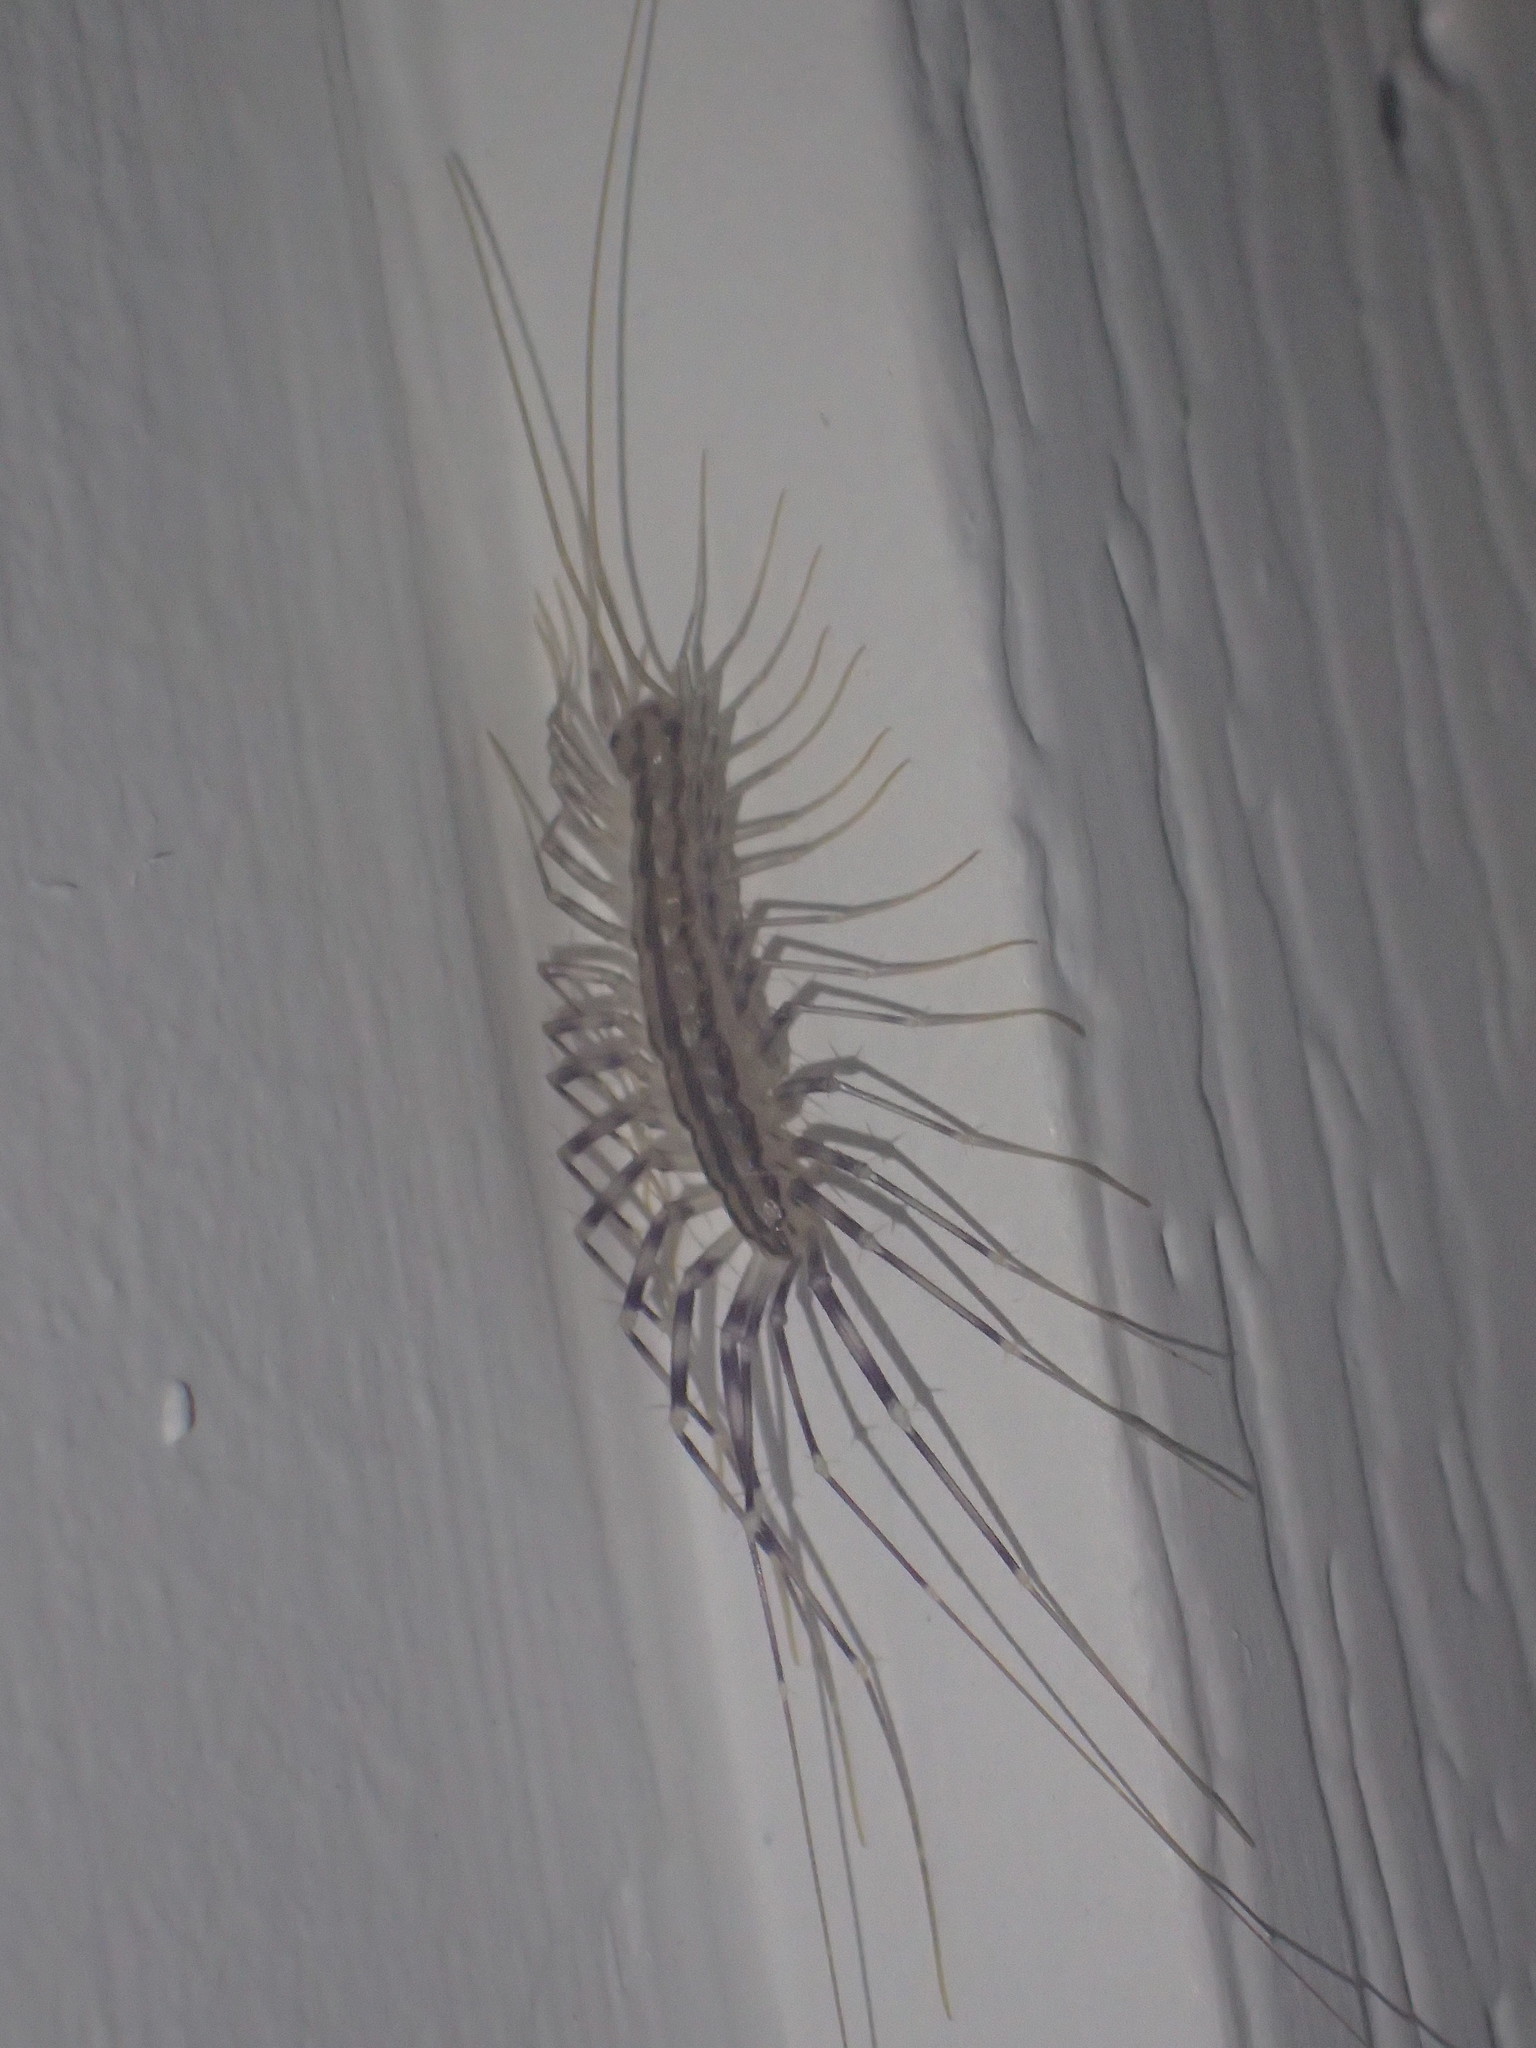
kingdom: Animalia
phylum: Arthropoda
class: Chilopoda
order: Scutigeromorpha
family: Scutigeridae
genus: Scutigera
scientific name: Scutigera coleoptrata
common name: House centipede
